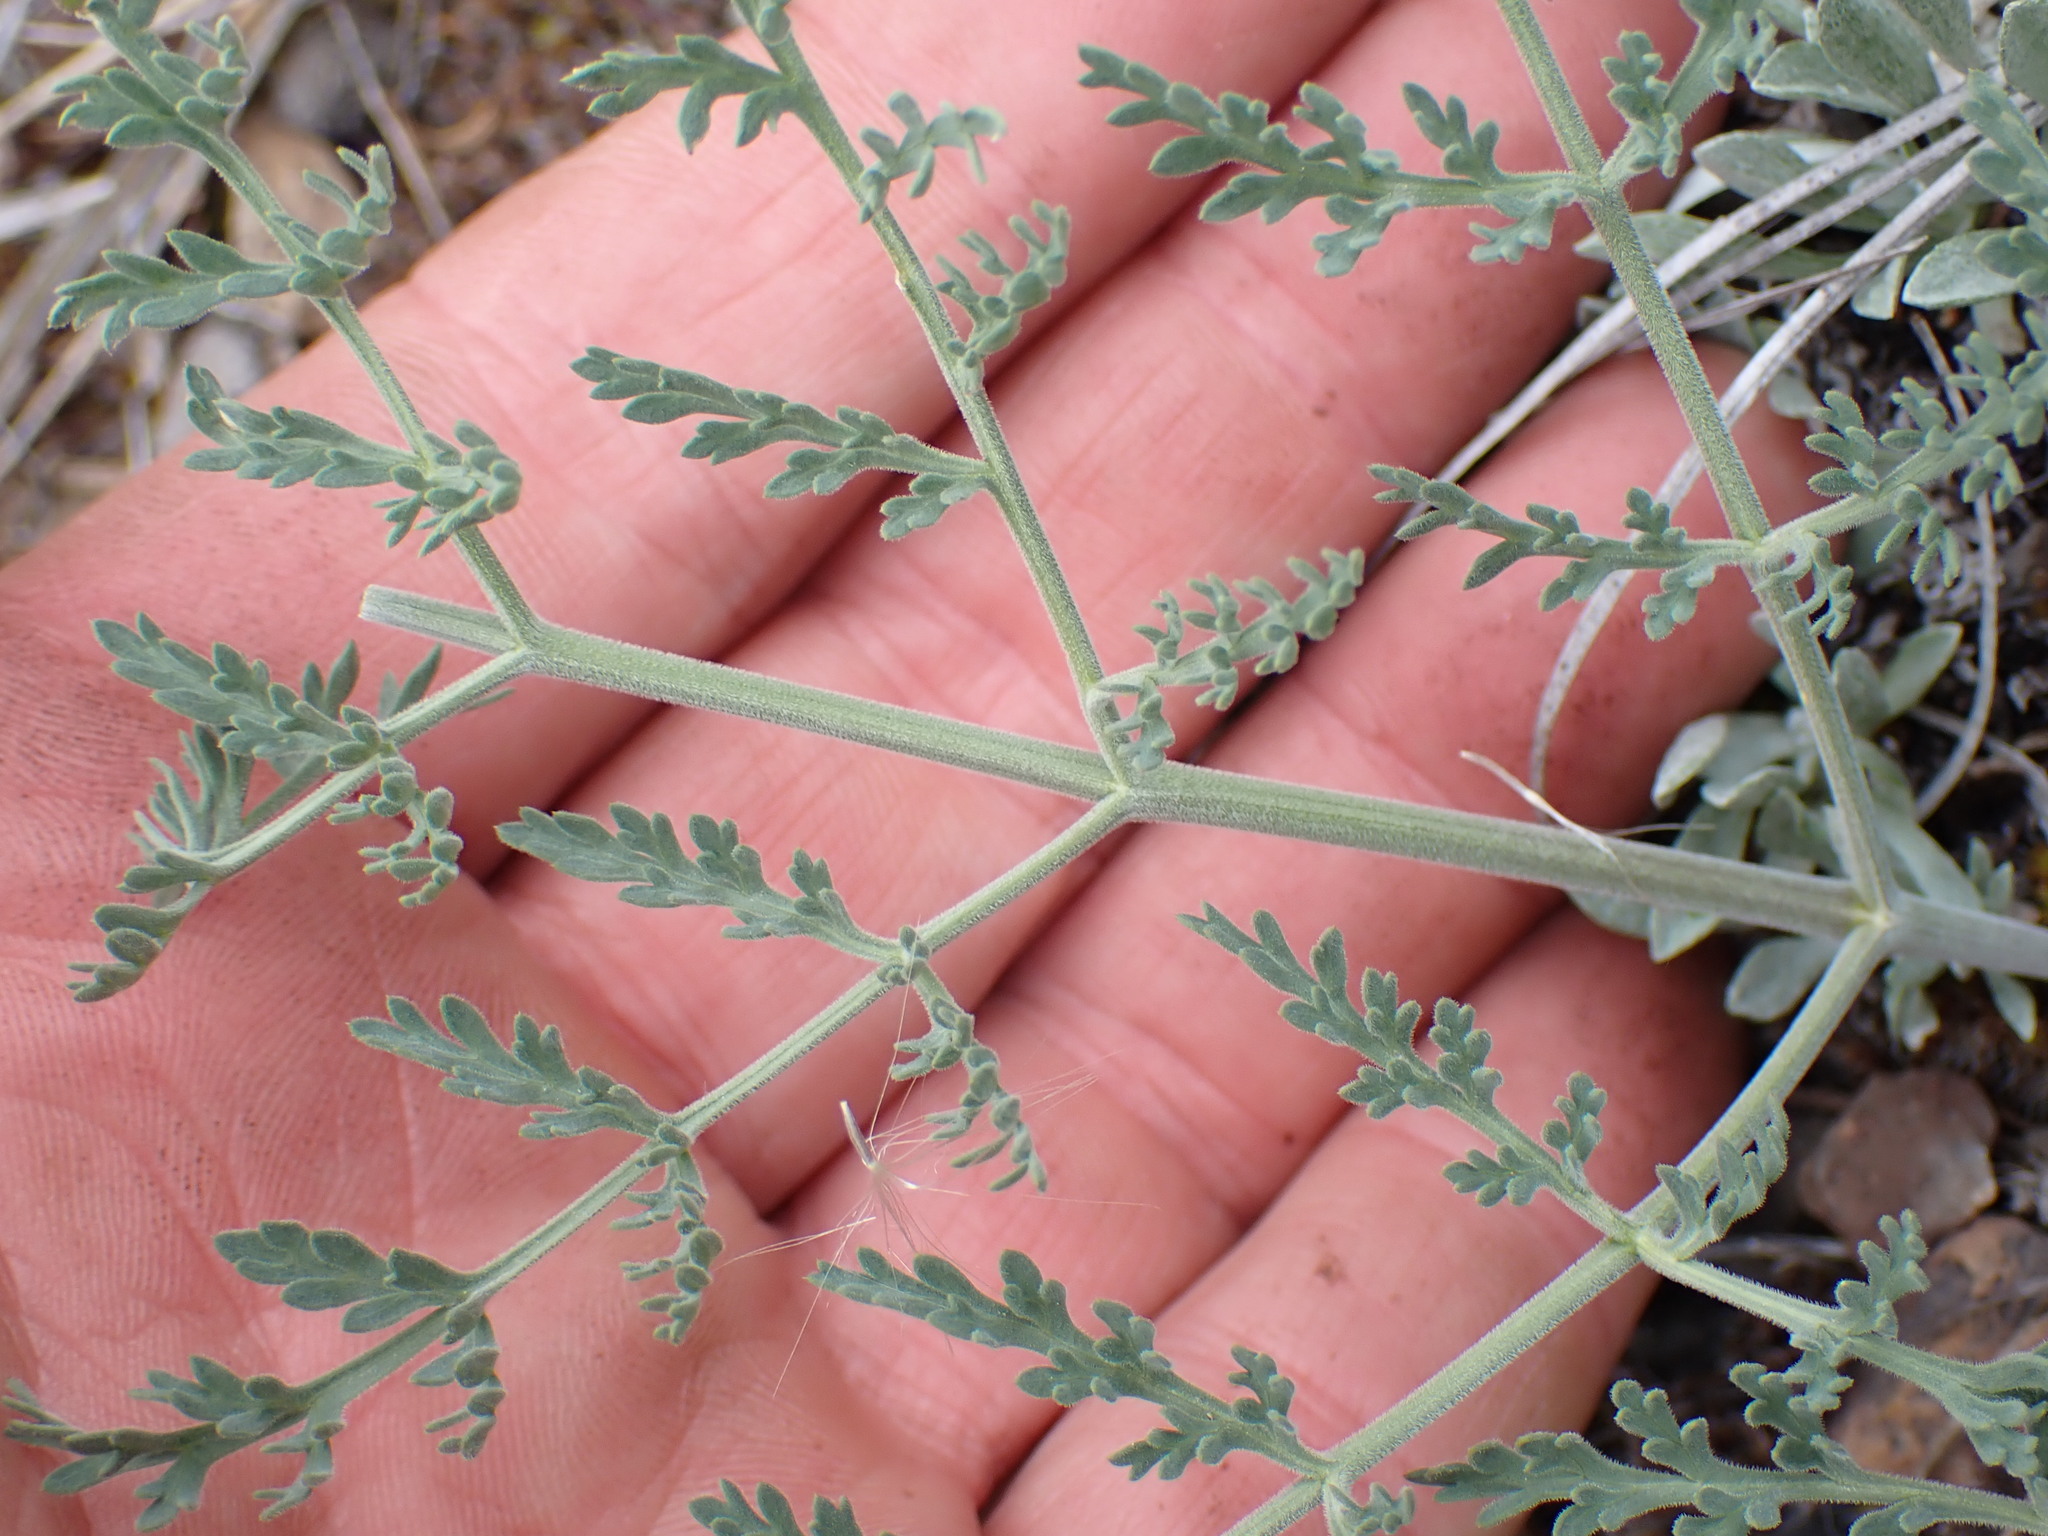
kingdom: Plantae
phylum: Tracheophyta
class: Magnoliopsida
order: Apiales
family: Apiaceae
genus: Lomatium
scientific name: Lomatium macrocarpum
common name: Big-seed biscuitroot
